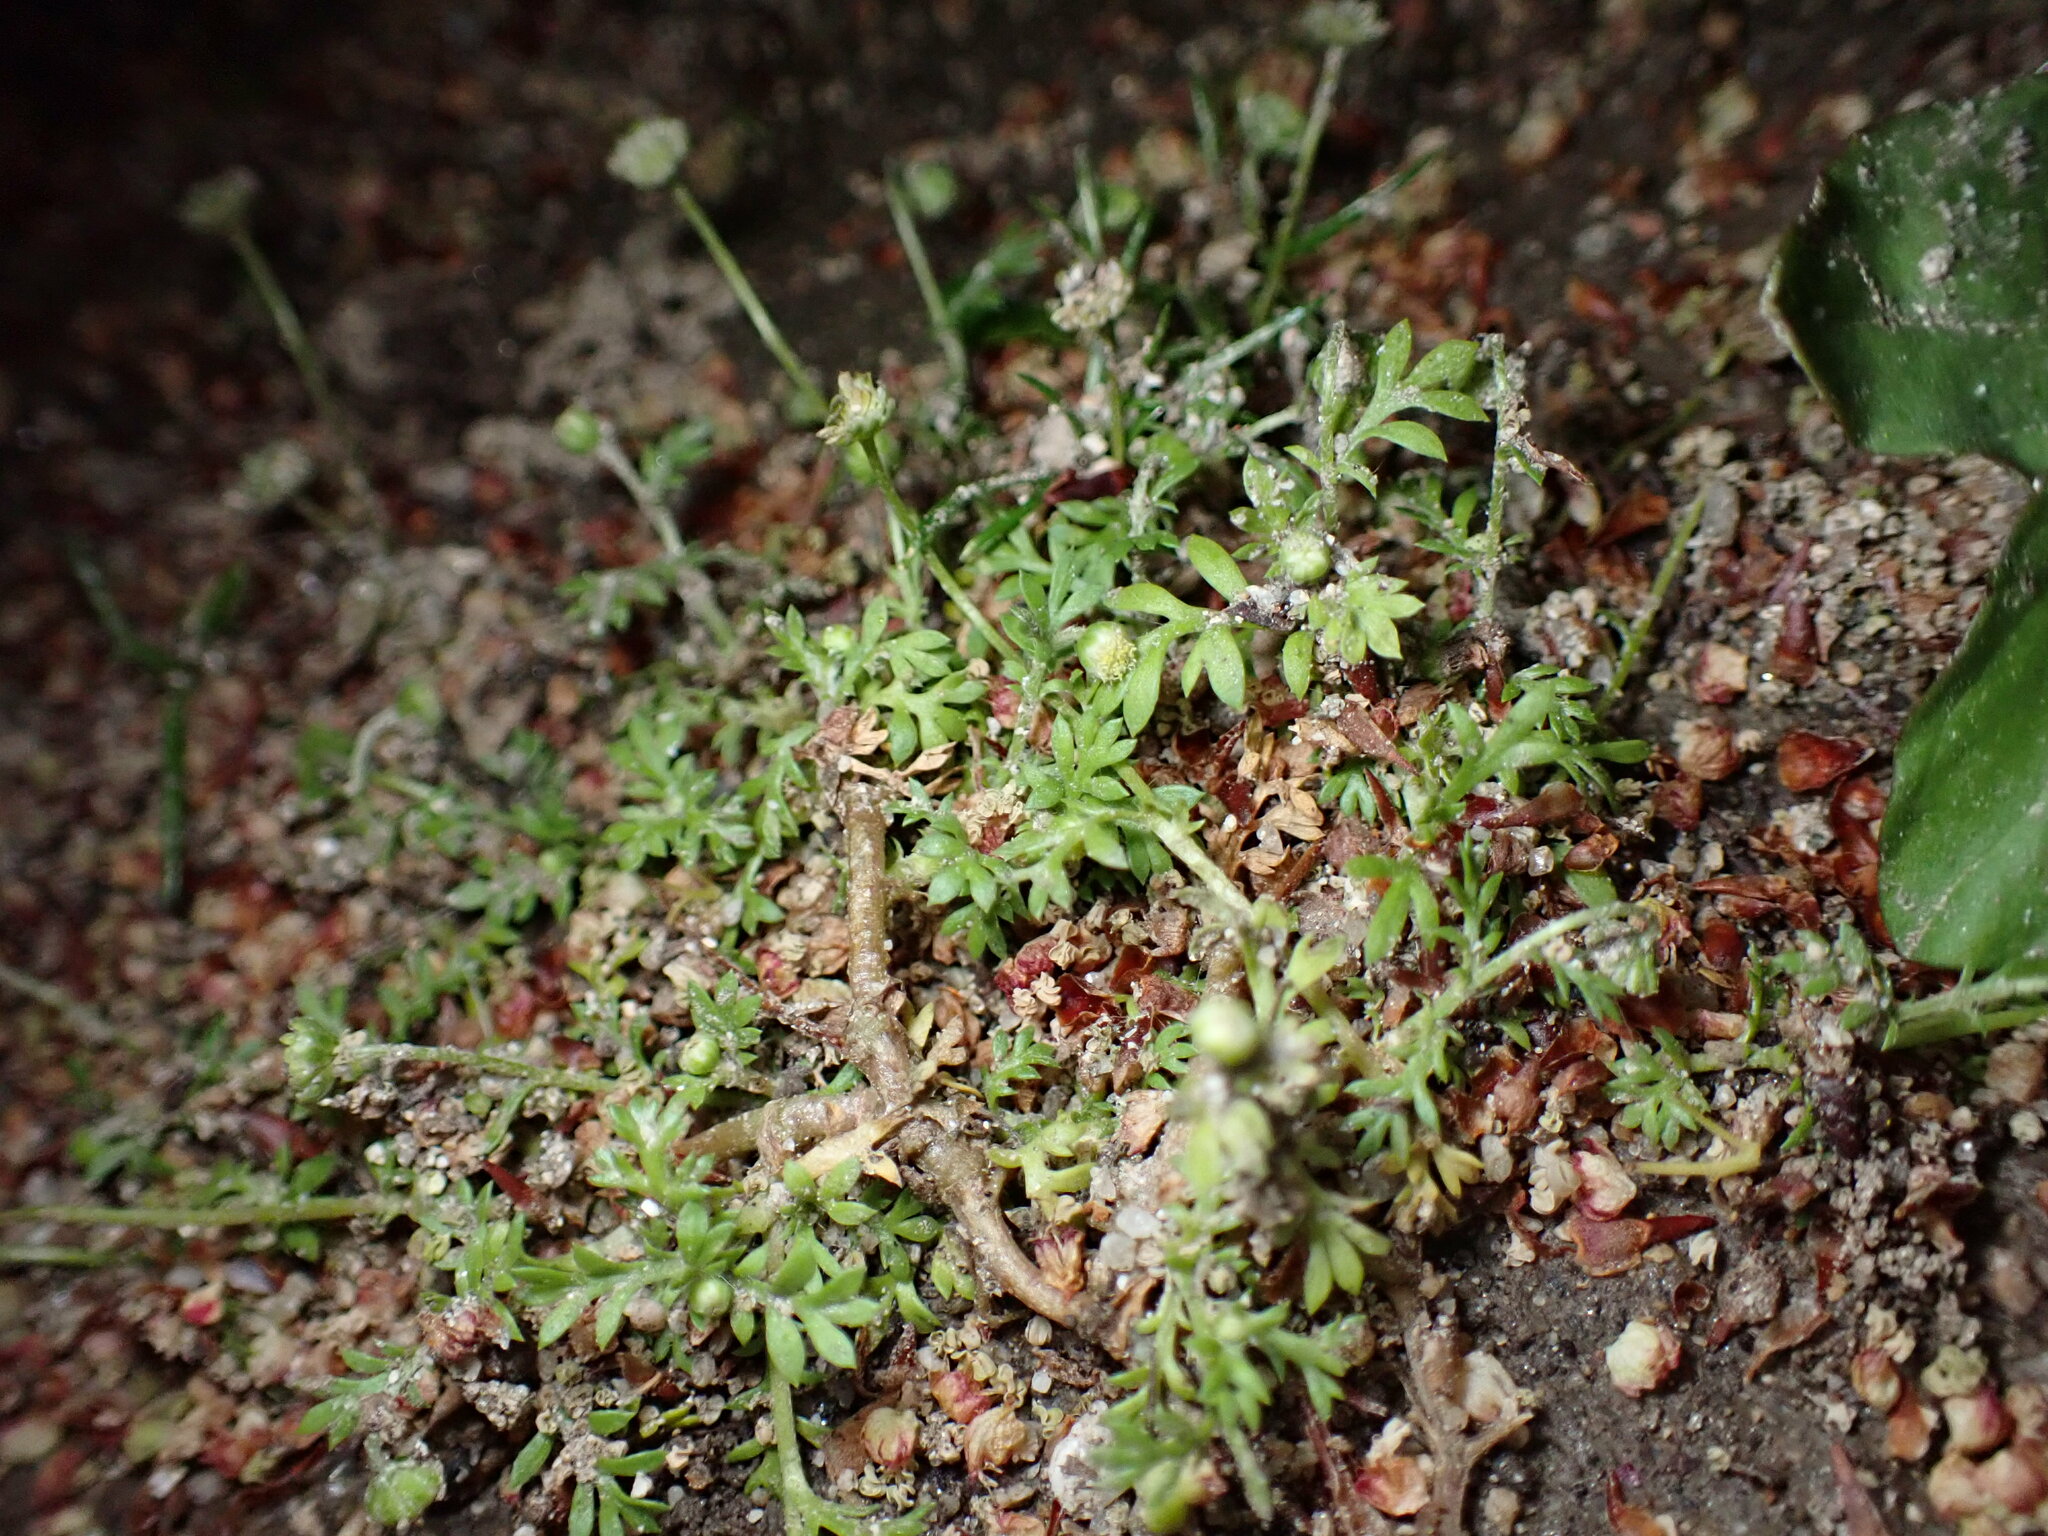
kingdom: Plantae
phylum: Tracheophyta
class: Magnoliopsida
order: Asterales
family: Asteraceae
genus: Cotula
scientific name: Cotula australis
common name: Australian waterbuttons
